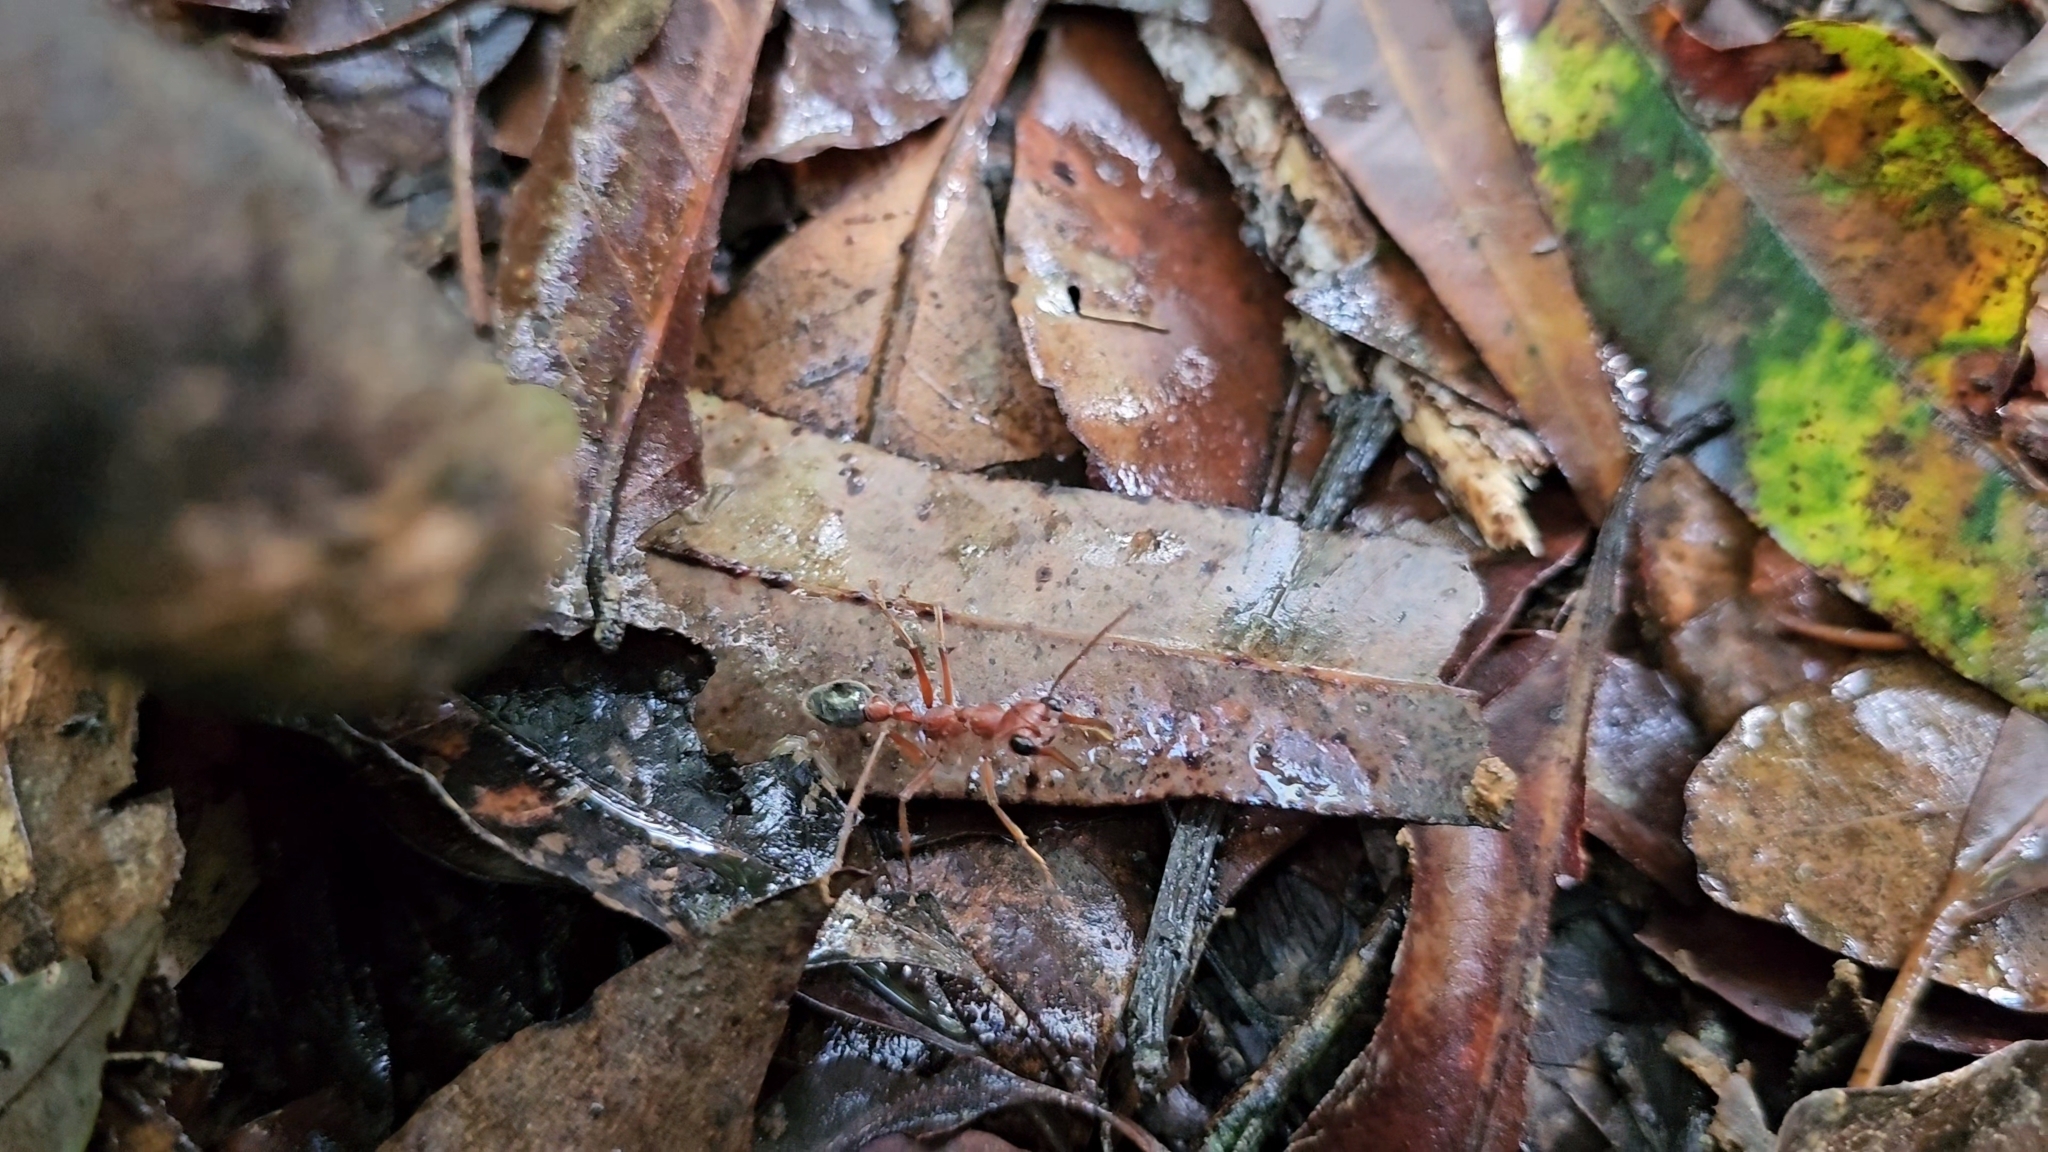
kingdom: Animalia
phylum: Arthropoda
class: Insecta
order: Hymenoptera
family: Formicidae
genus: Myrmecia
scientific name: Myrmecia brevinoda
